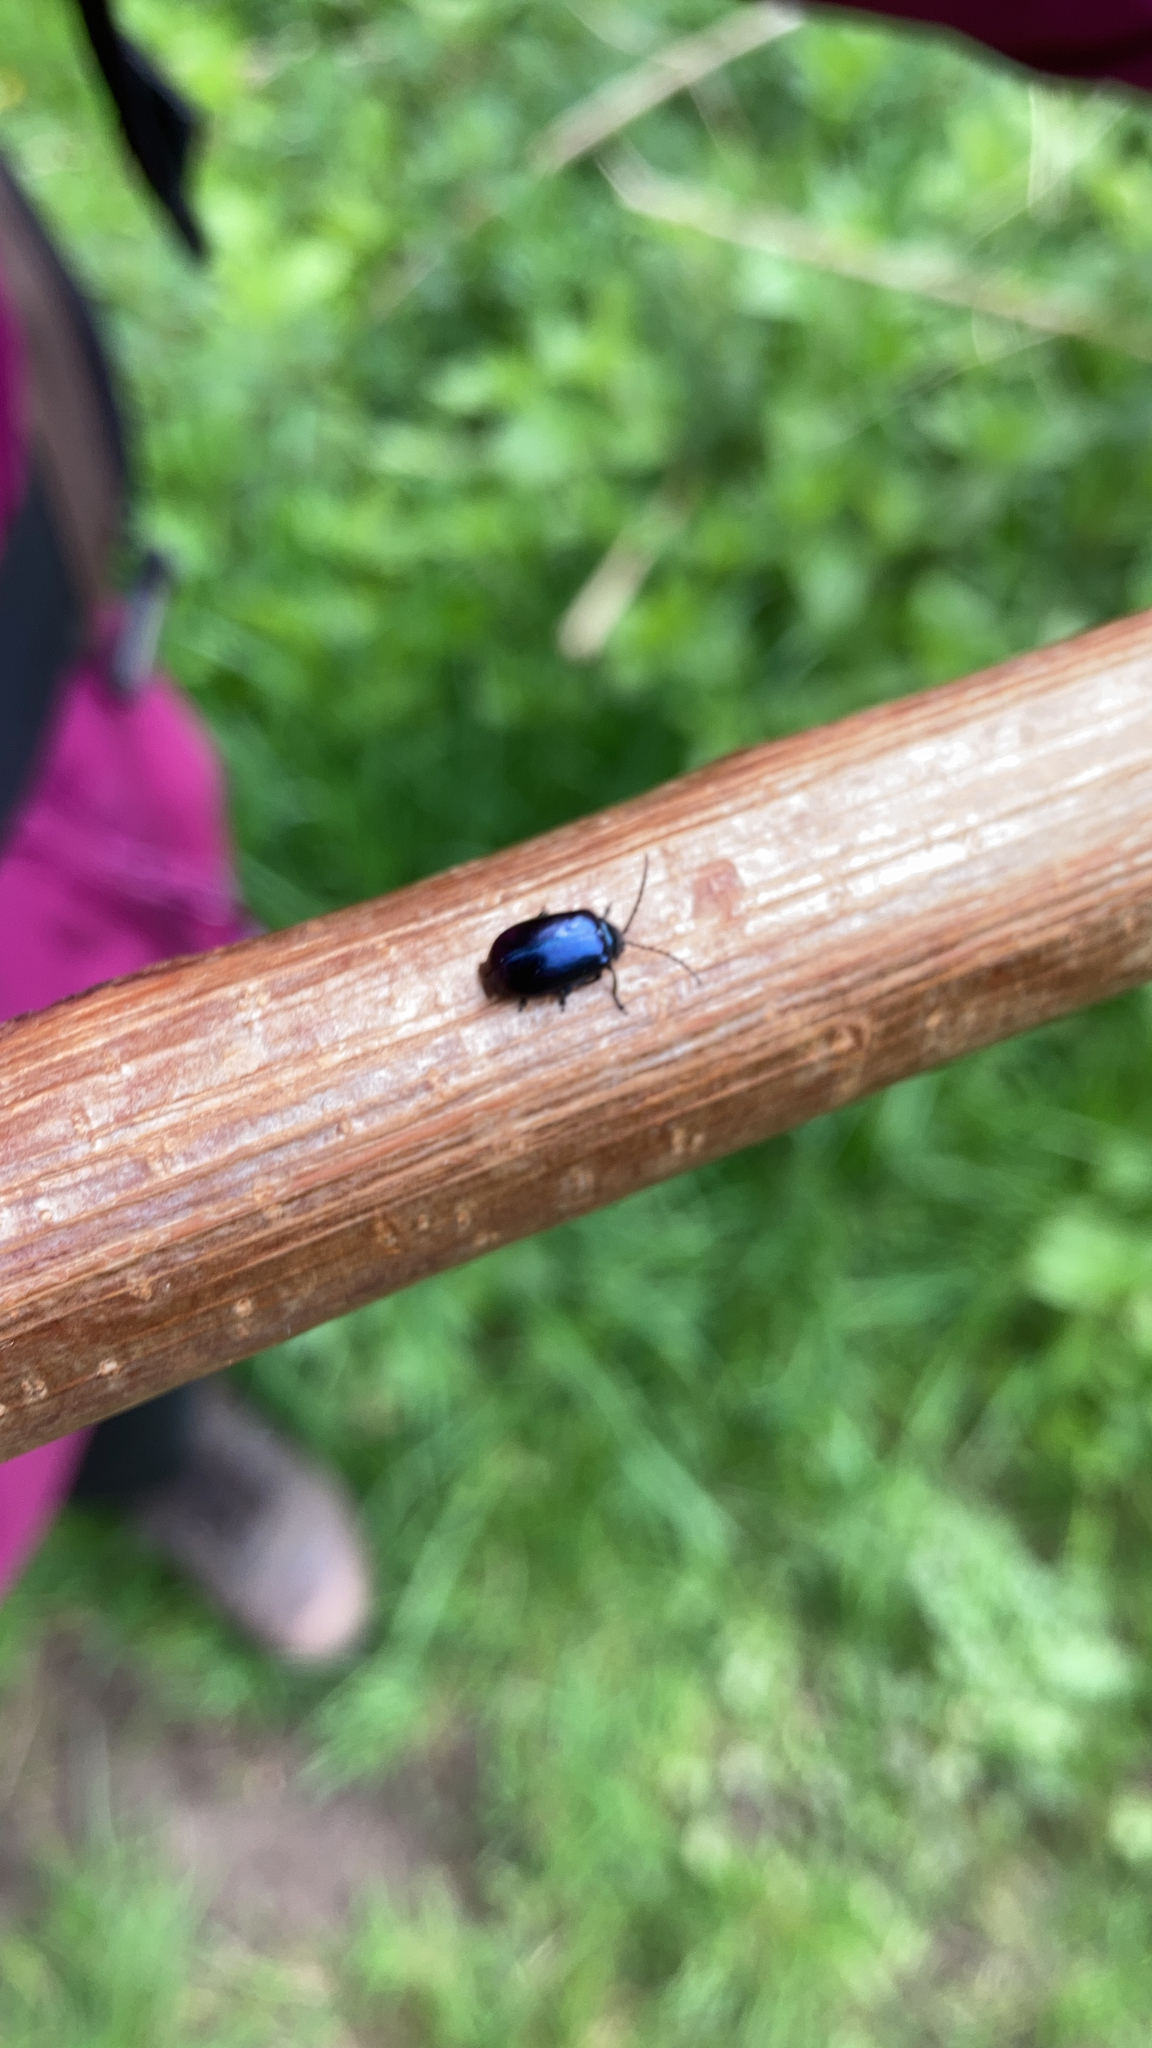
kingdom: Animalia
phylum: Arthropoda
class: Insecta
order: Coleoptera
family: Chrysomelidae
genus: Agelastica
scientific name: Agelastica alni
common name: Alder leaf beetle
